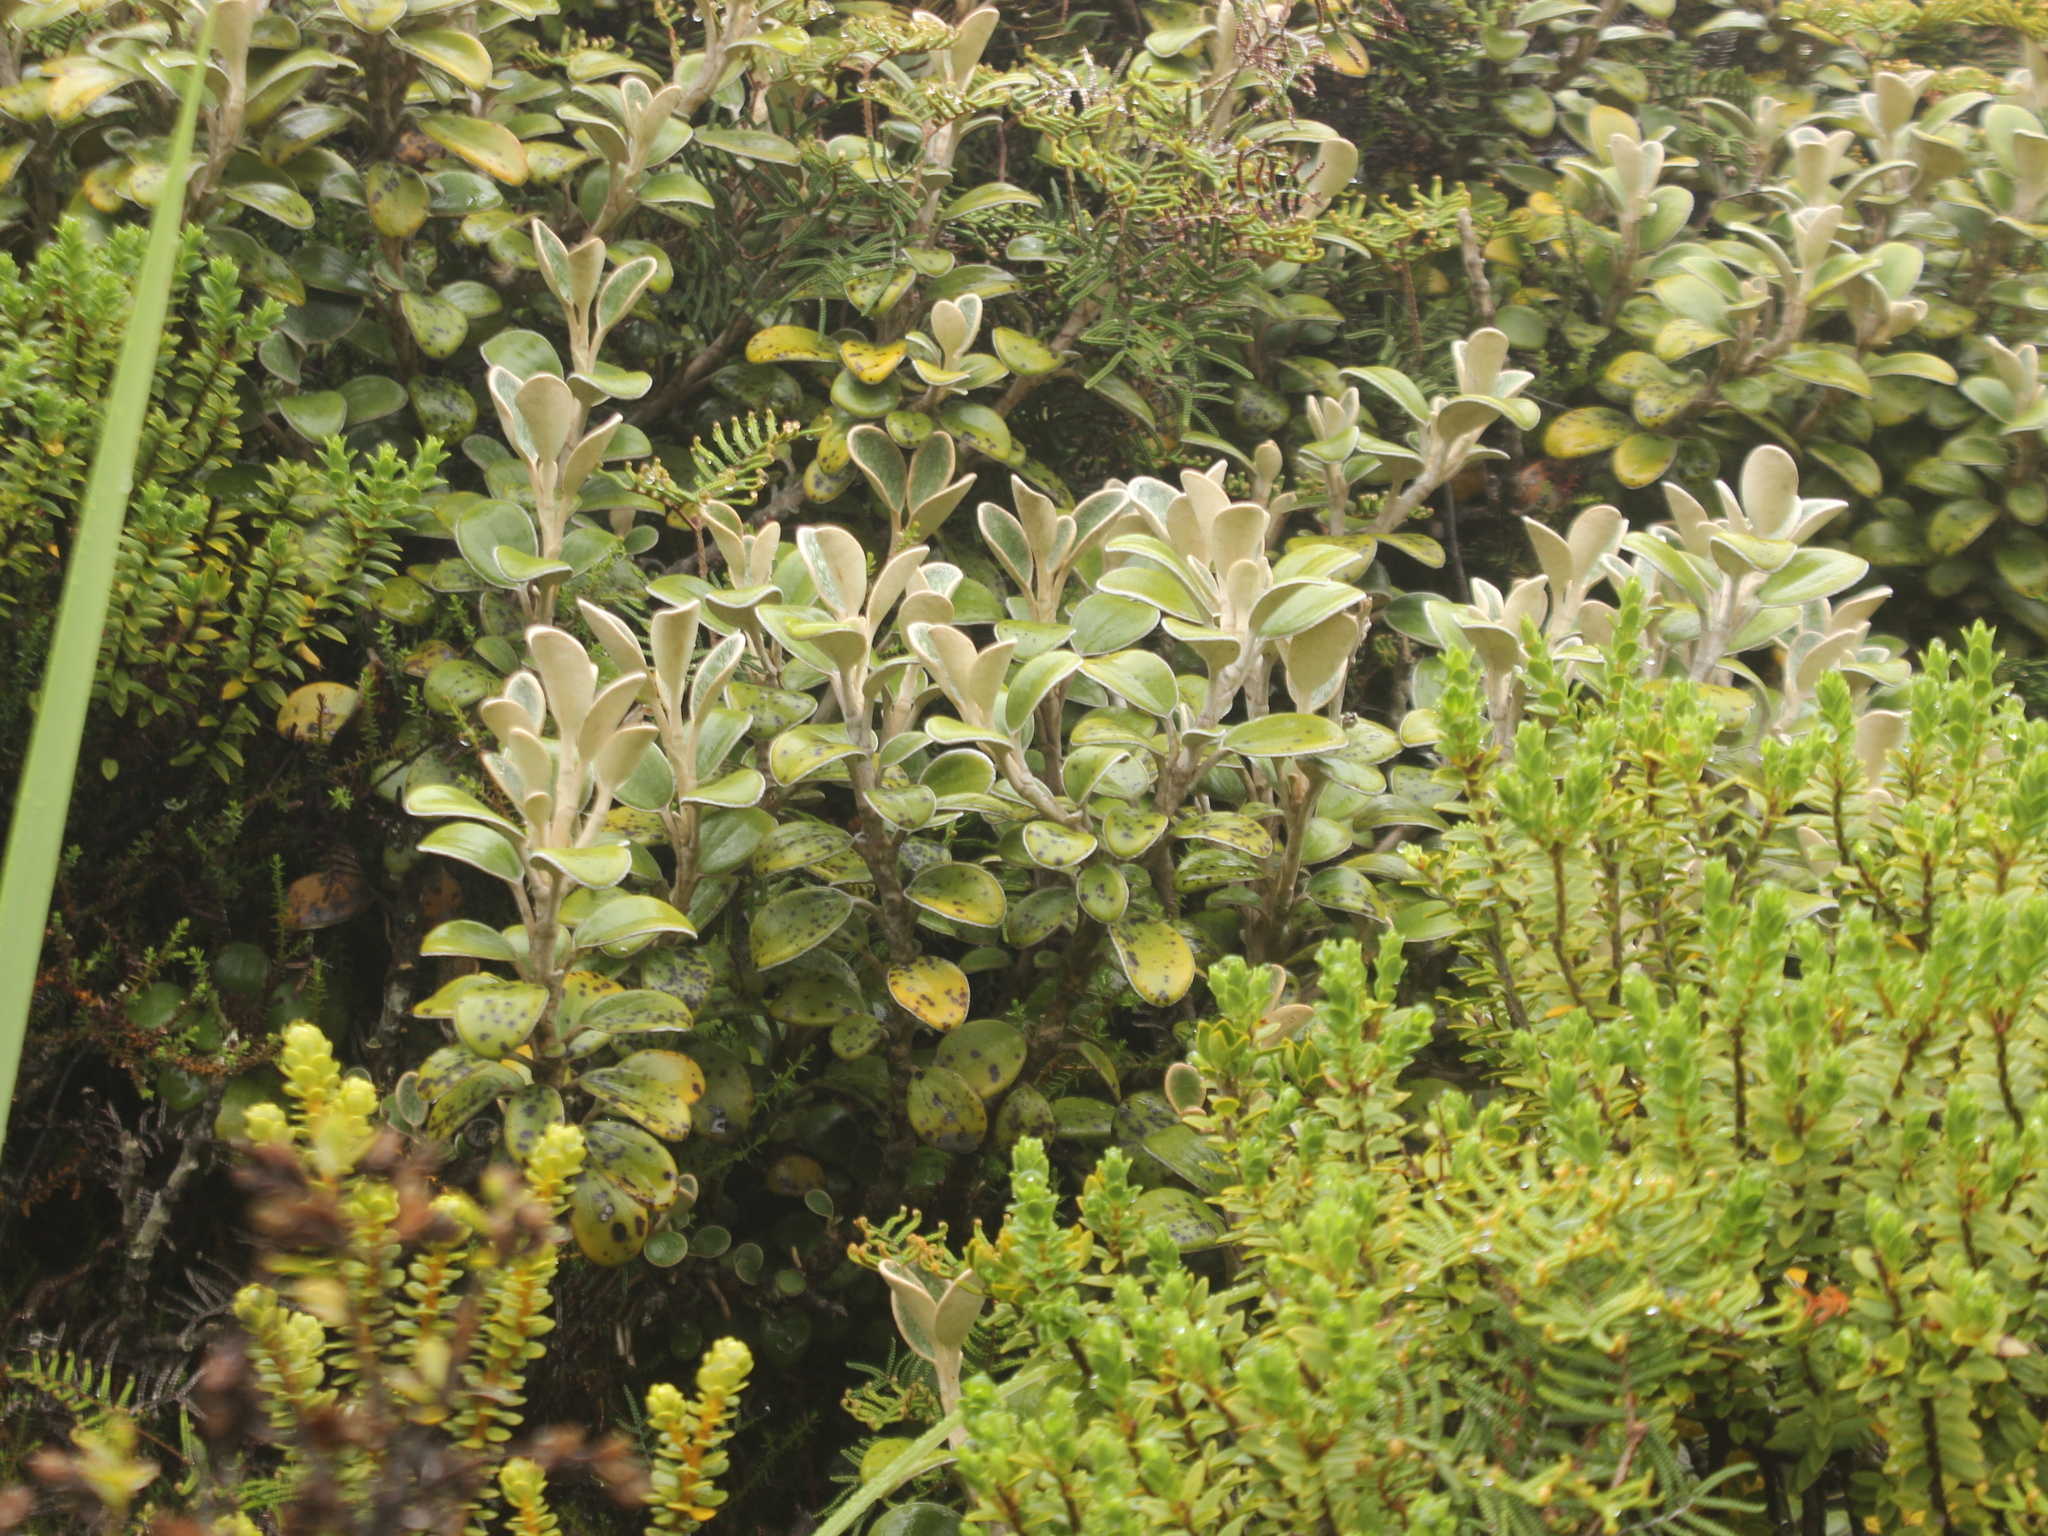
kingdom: Plantae
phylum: Tracheophyta
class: Magnoliopsida
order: Asterales
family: Asteraceae
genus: Brachyglottis
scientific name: Brachyglottis bidwillii
